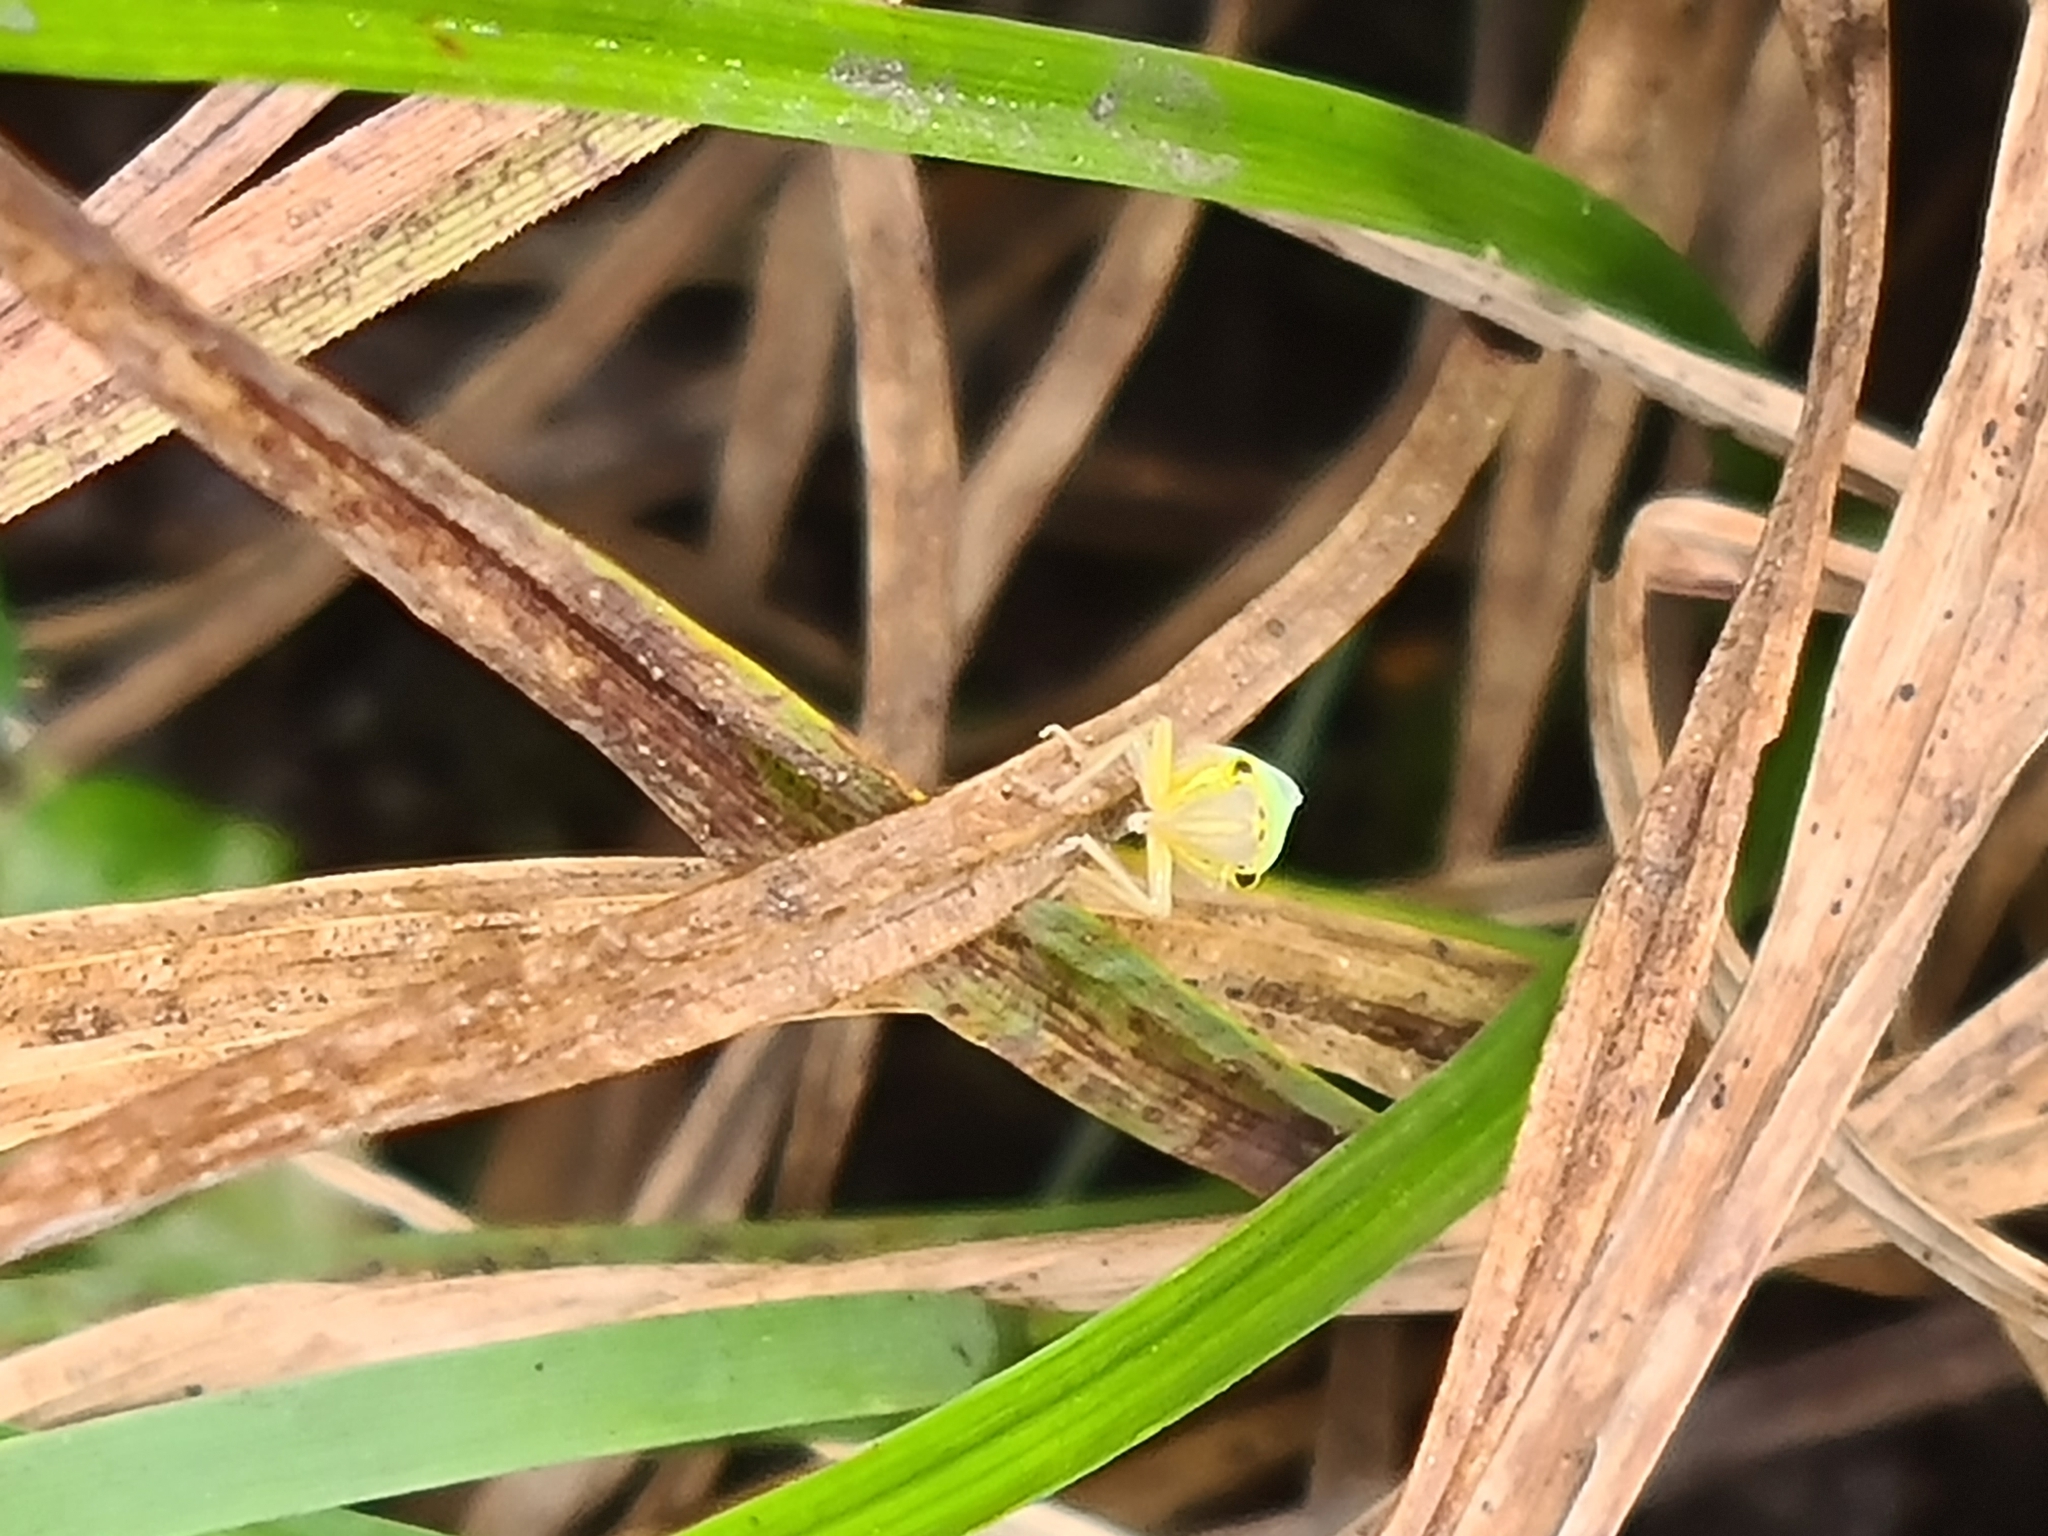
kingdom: Animalia
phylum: Arthropoda
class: Insecta
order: Hemiptera
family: Cicadellidae
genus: Cicadella
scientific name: Cicadella viridis
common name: Leafhopper
